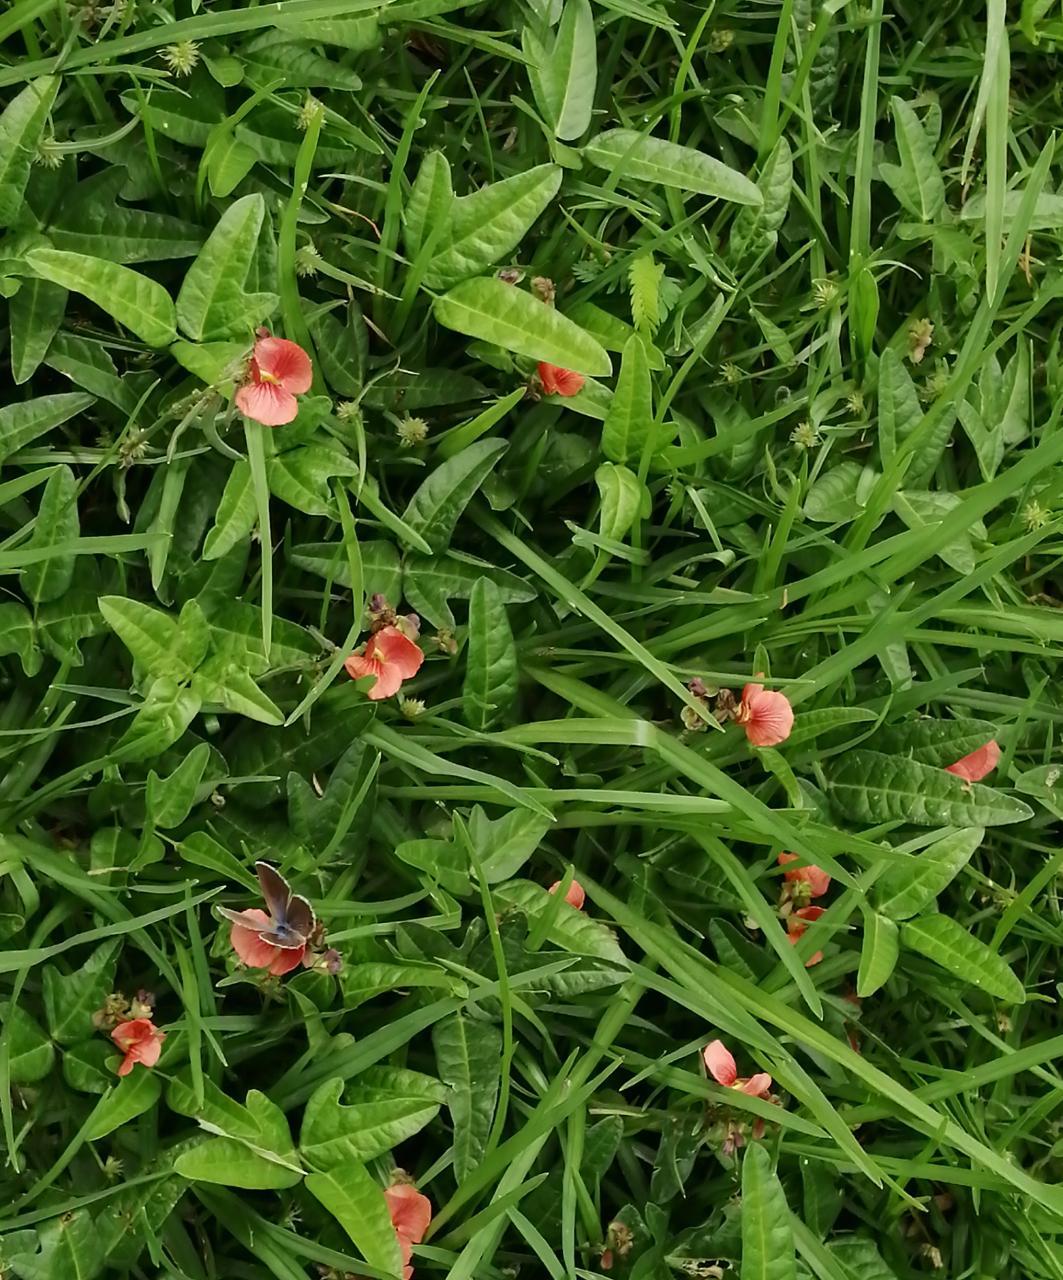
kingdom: Plantae
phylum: Tracheophyta
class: Magnoliopsida
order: Fabales
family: Fabaceae
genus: Macroptilium
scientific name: Macroptilium gibbosifolium
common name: Variableleaf bushbean
